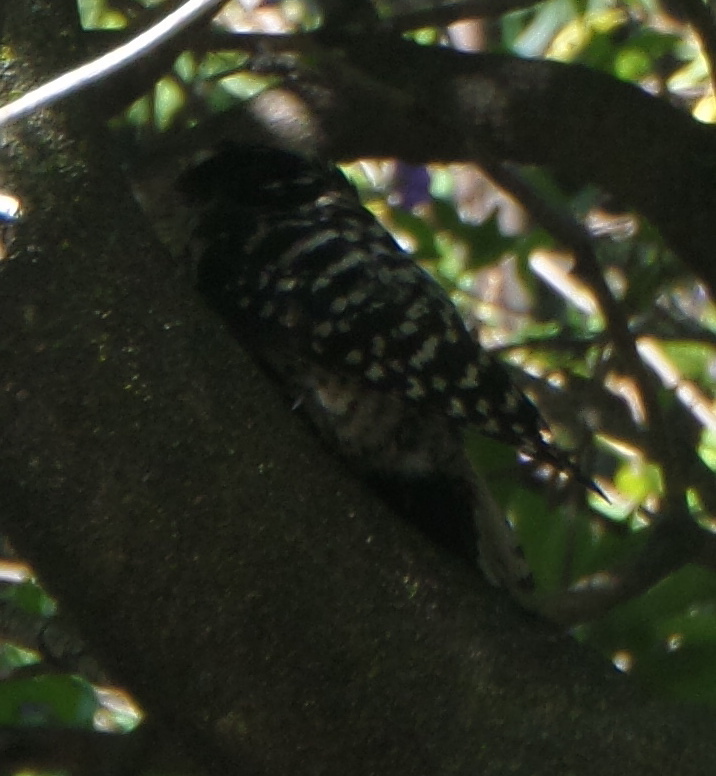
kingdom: Animalia
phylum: Chordata
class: Aves
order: Piciformes
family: Picidae
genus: Dryobates
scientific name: Dryobates nuttallii
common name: Nuttall's woodpecker
